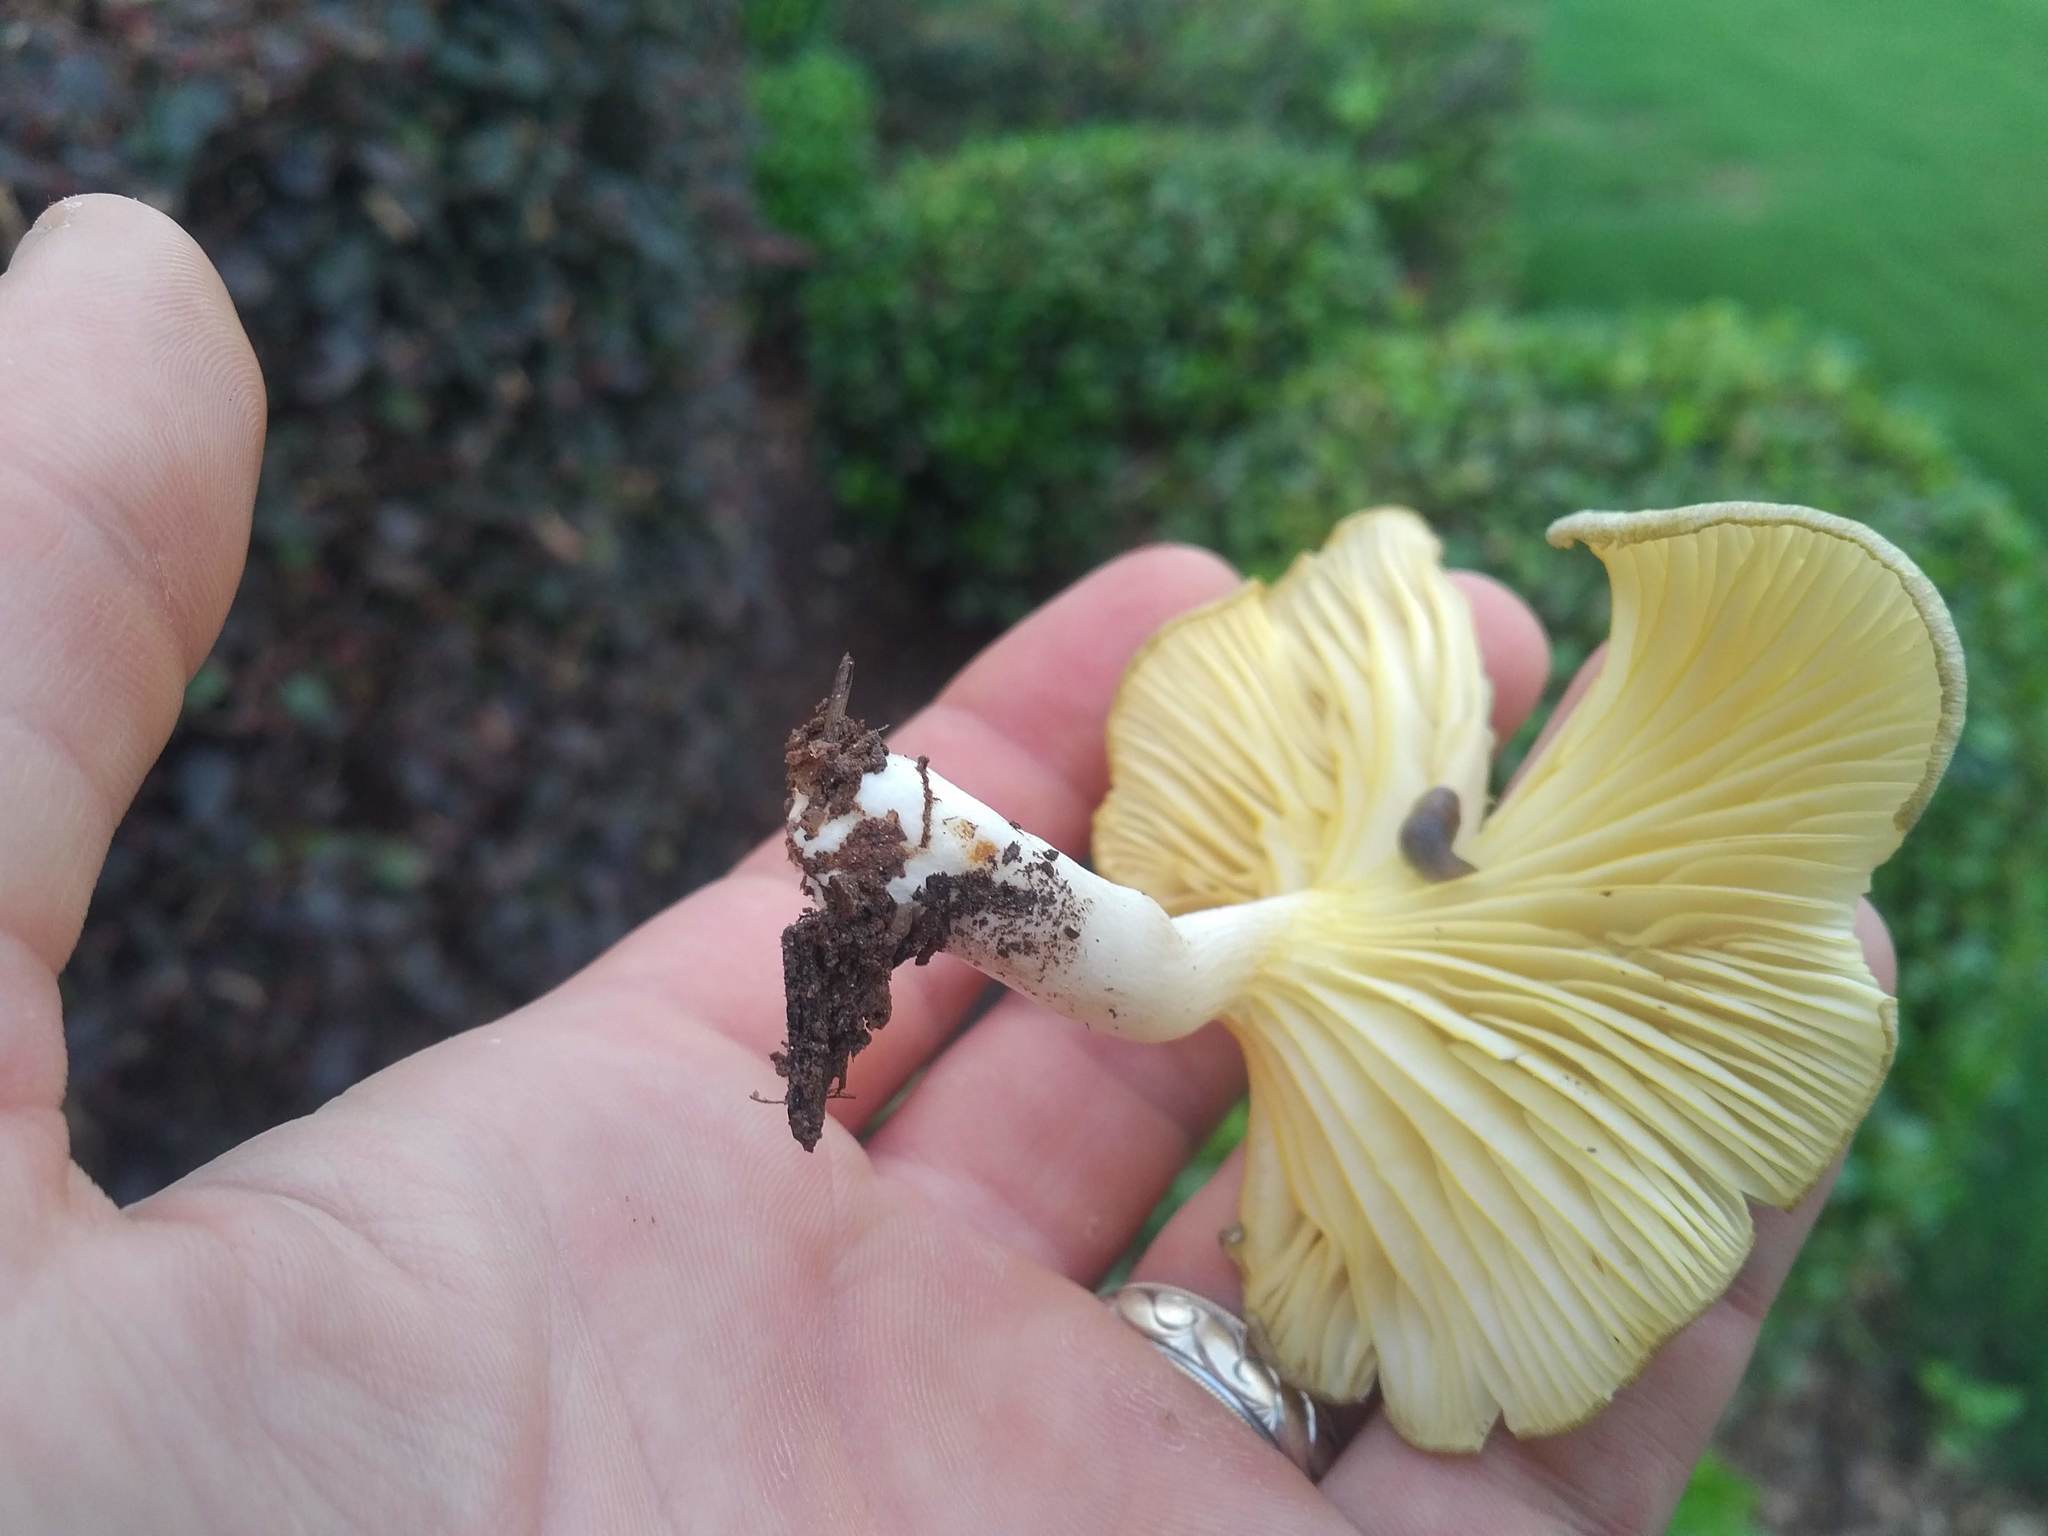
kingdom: Fungi
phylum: Basidiomycota
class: Agaricomycetes
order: Agaricales
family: Marasmiaceae
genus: Gerronema
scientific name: Gerronema strombodes
